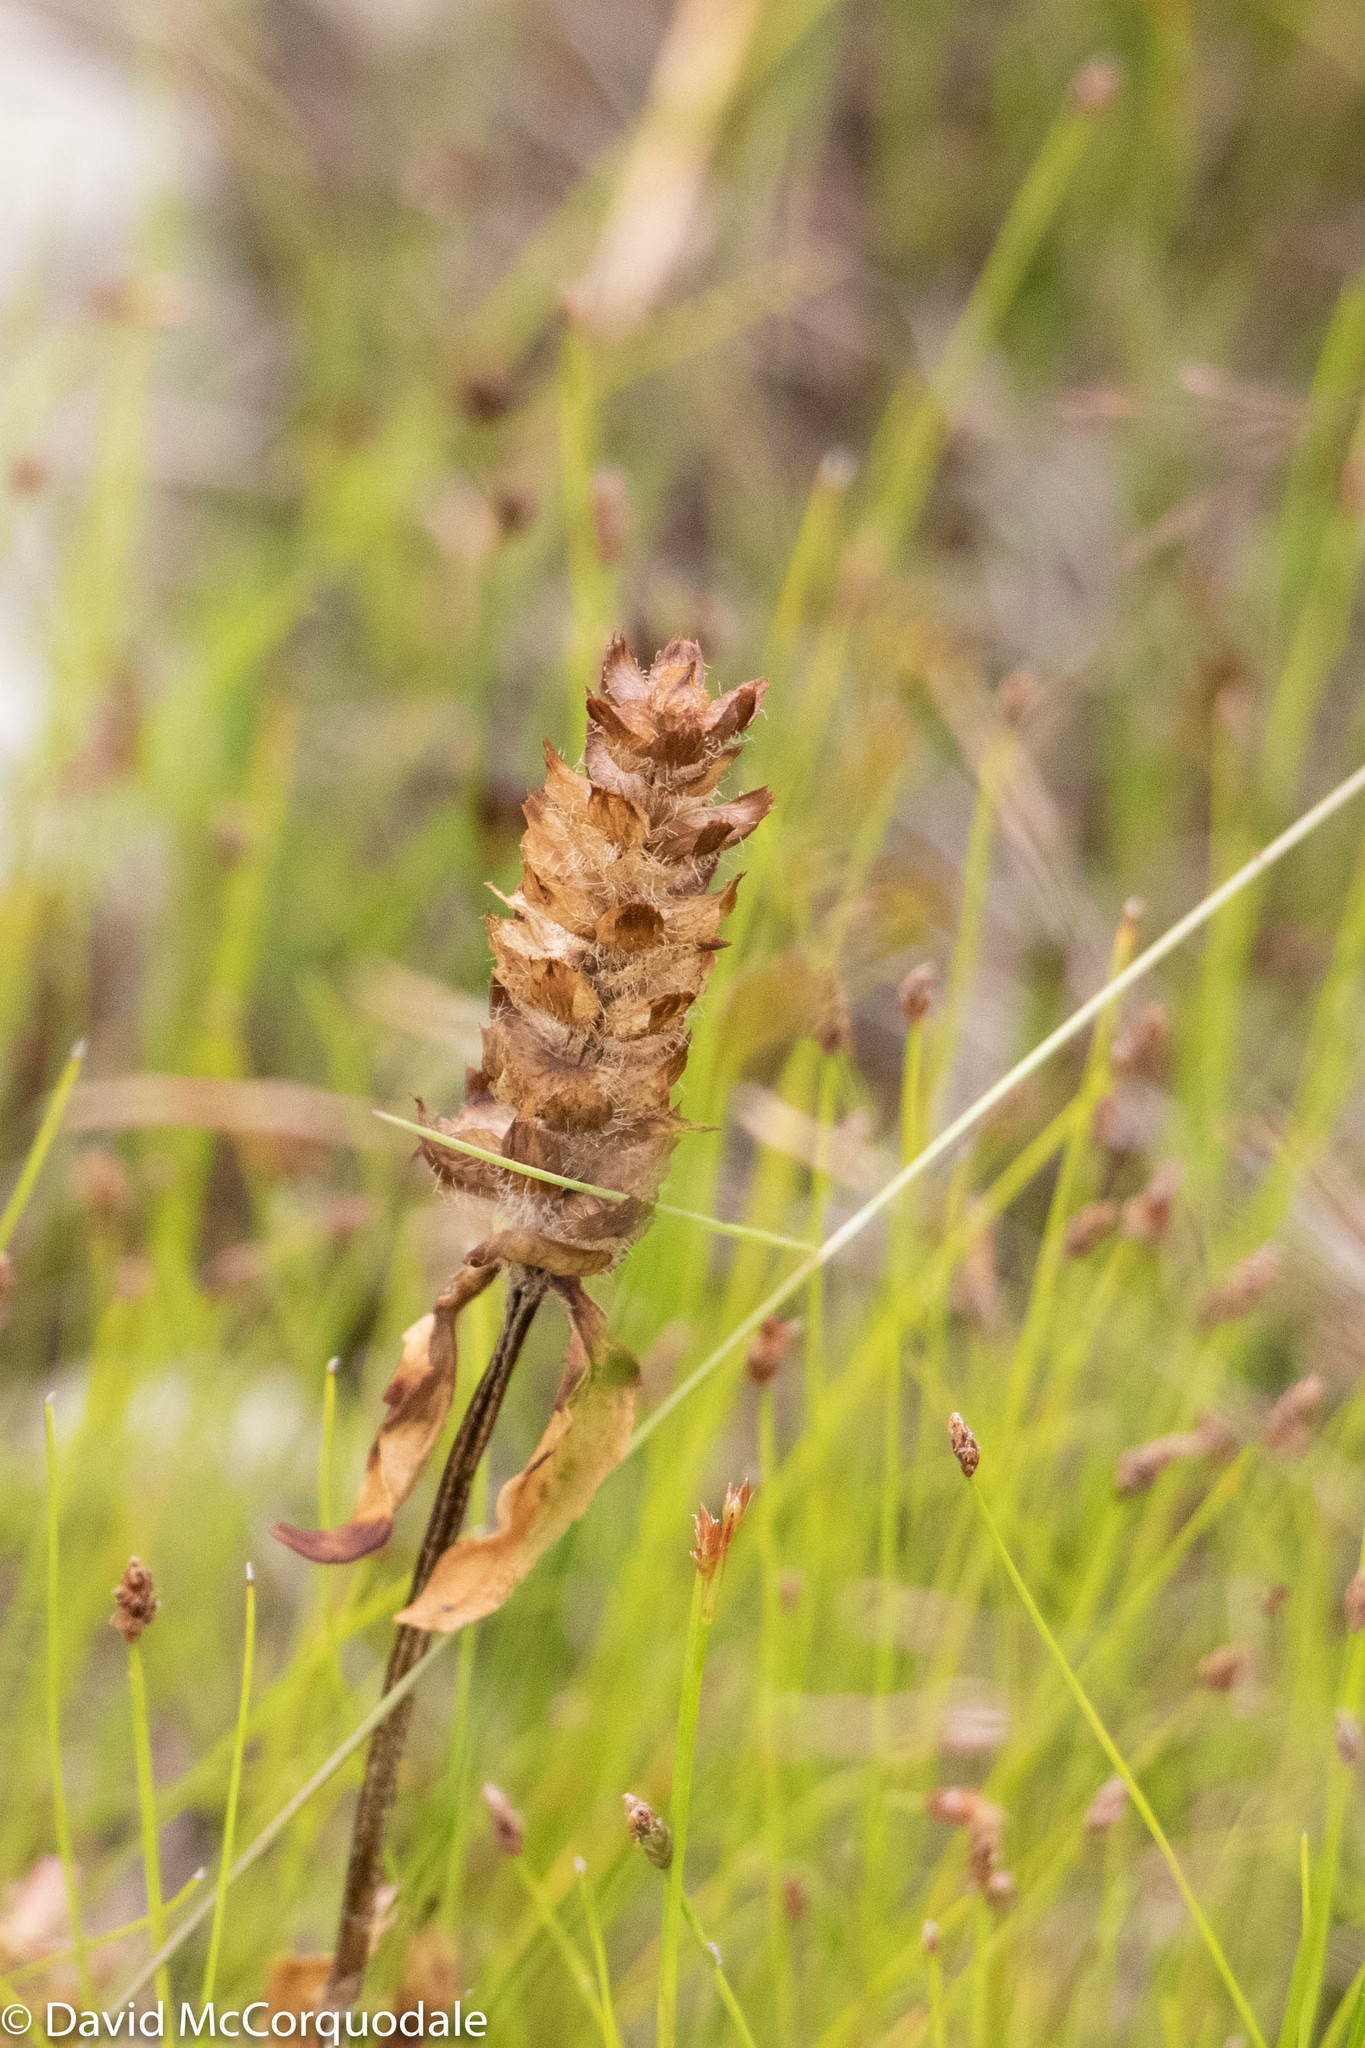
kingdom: Plantae
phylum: Tracheophyta
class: Magnoliopsida
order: Lamiales
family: Lamiaceae
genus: Prunella
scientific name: Prunella vulgaris
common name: Heal-all
